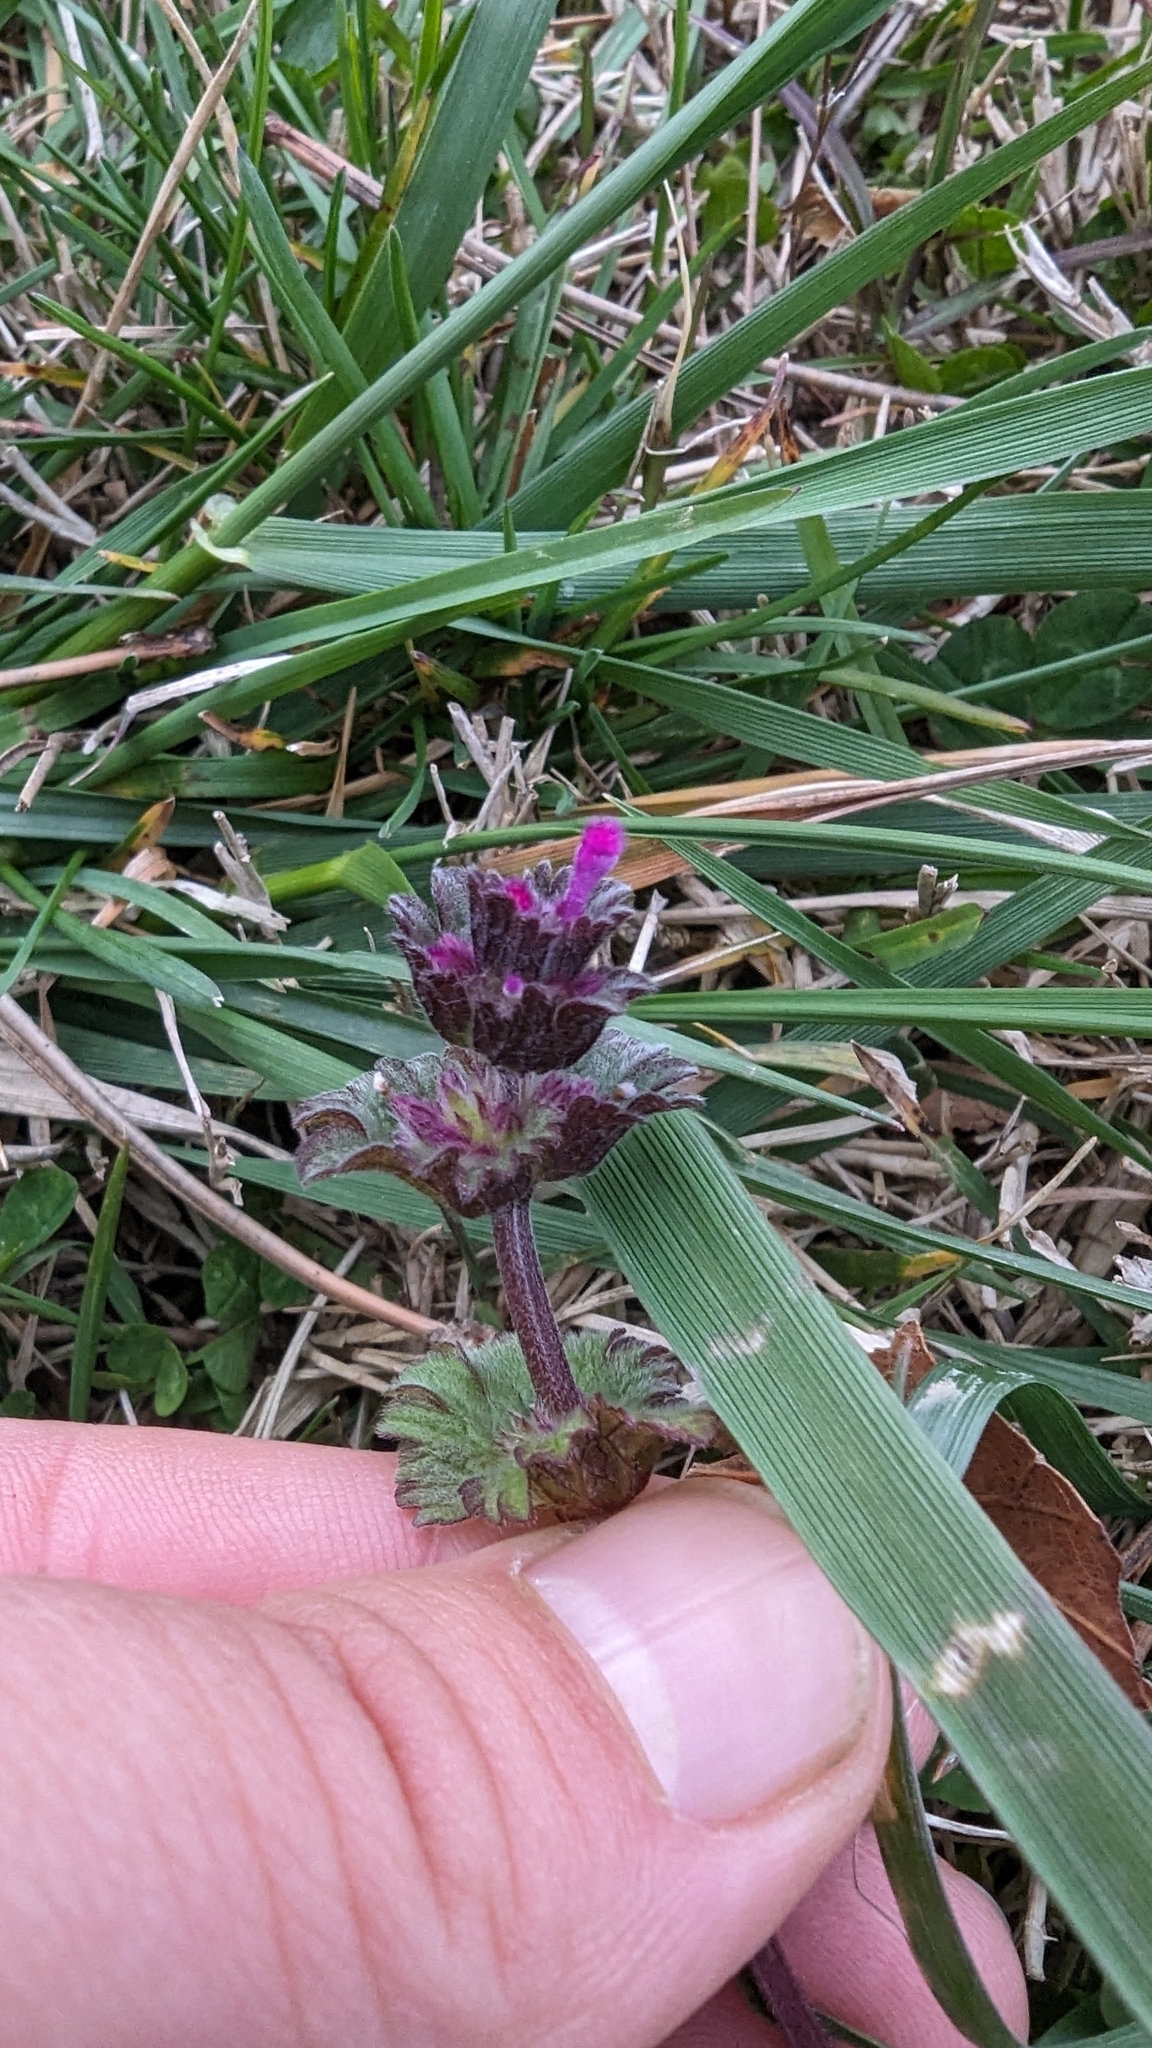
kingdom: Plantae
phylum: Tracheophyta
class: Magnoliopsida
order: Lamiales
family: Lamiaceae
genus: Lamium
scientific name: Lamium amplexicaule
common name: Henbit dead-nettle
